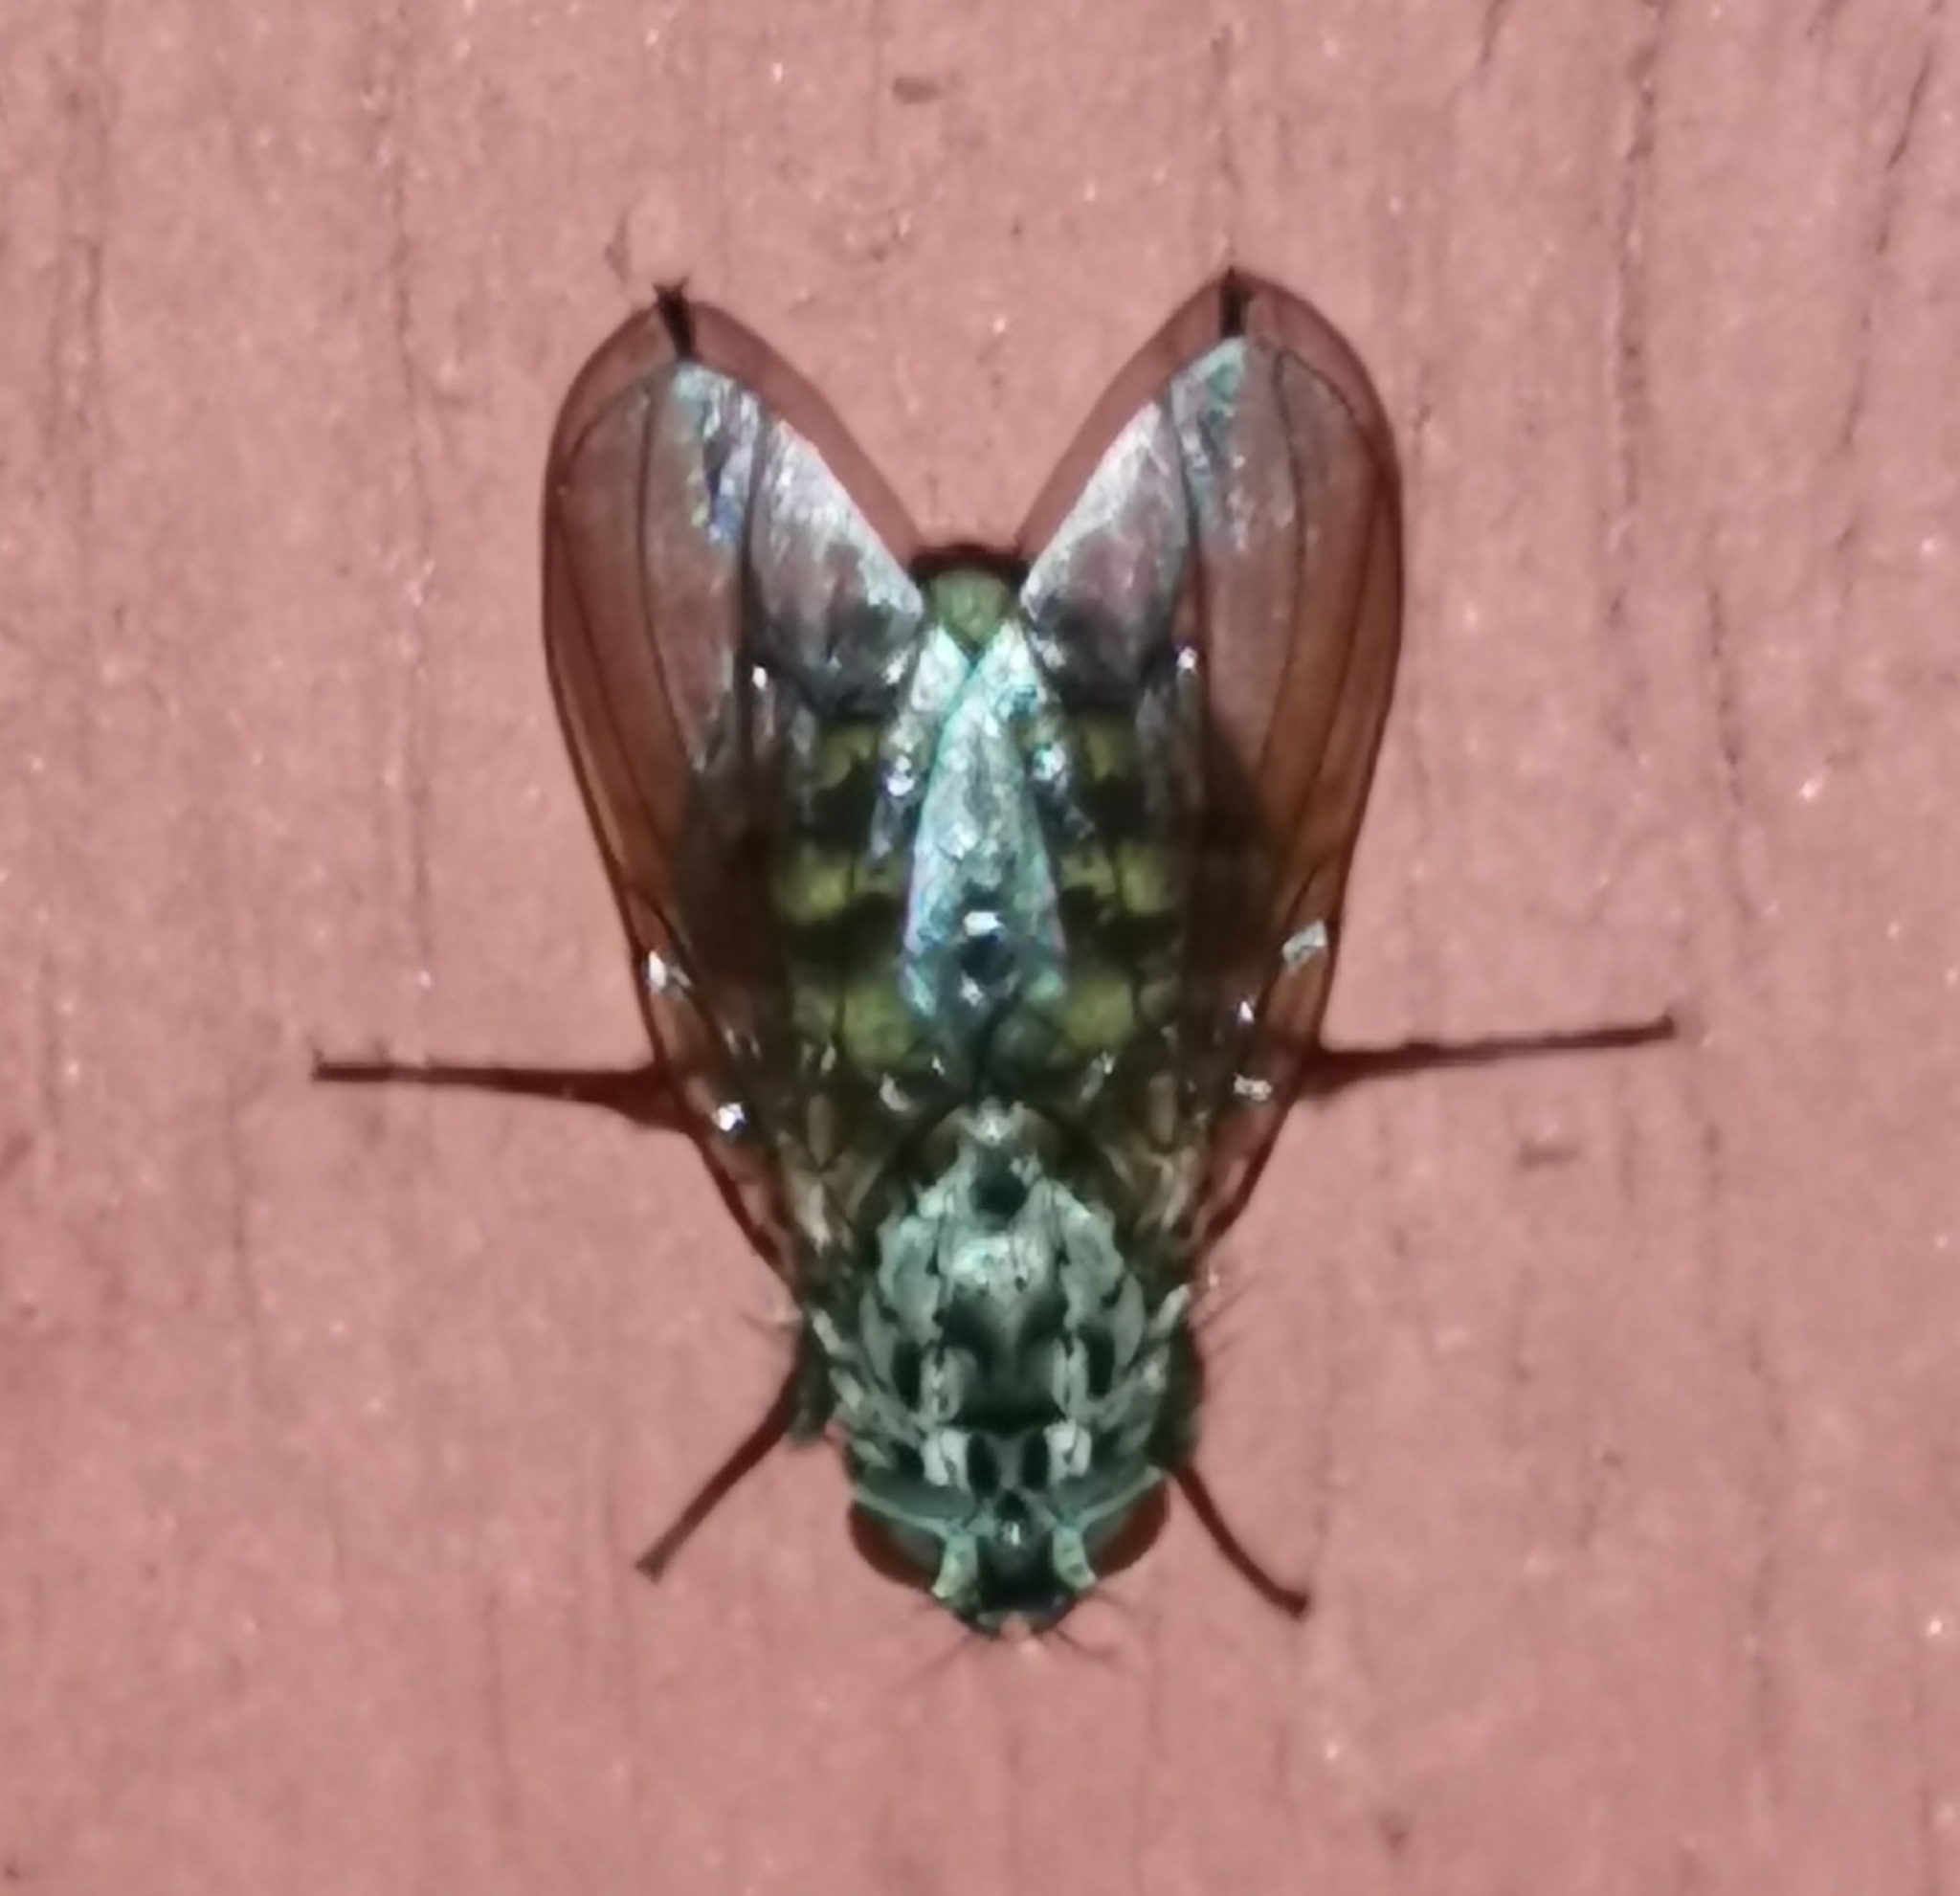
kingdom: Animalia
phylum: Arthropoda
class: Insecta
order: Diptera
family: Muscidae
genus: Polietes
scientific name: Polietes lardaria
